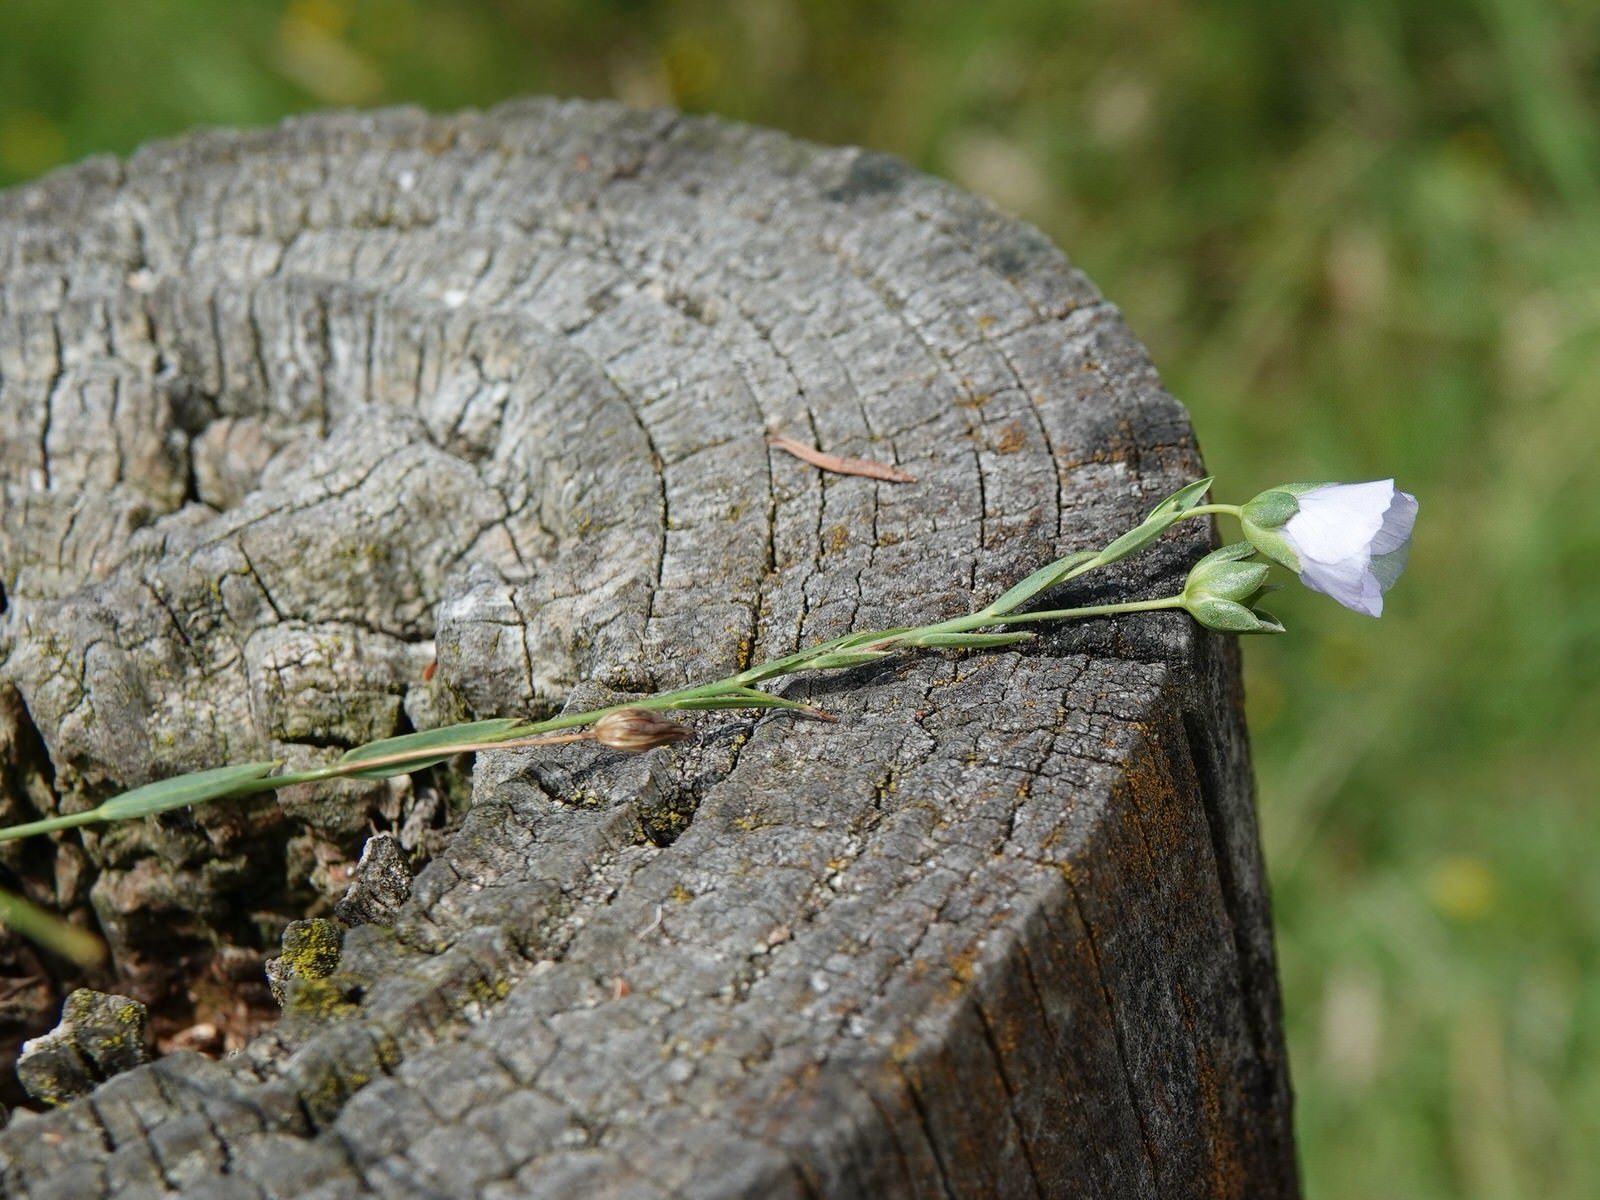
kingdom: Plantae
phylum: Tracheophyta
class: Magnoliopsida
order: Malpighiales
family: Linaceae
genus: Linum
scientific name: Linum usitatissimum
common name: Flax
